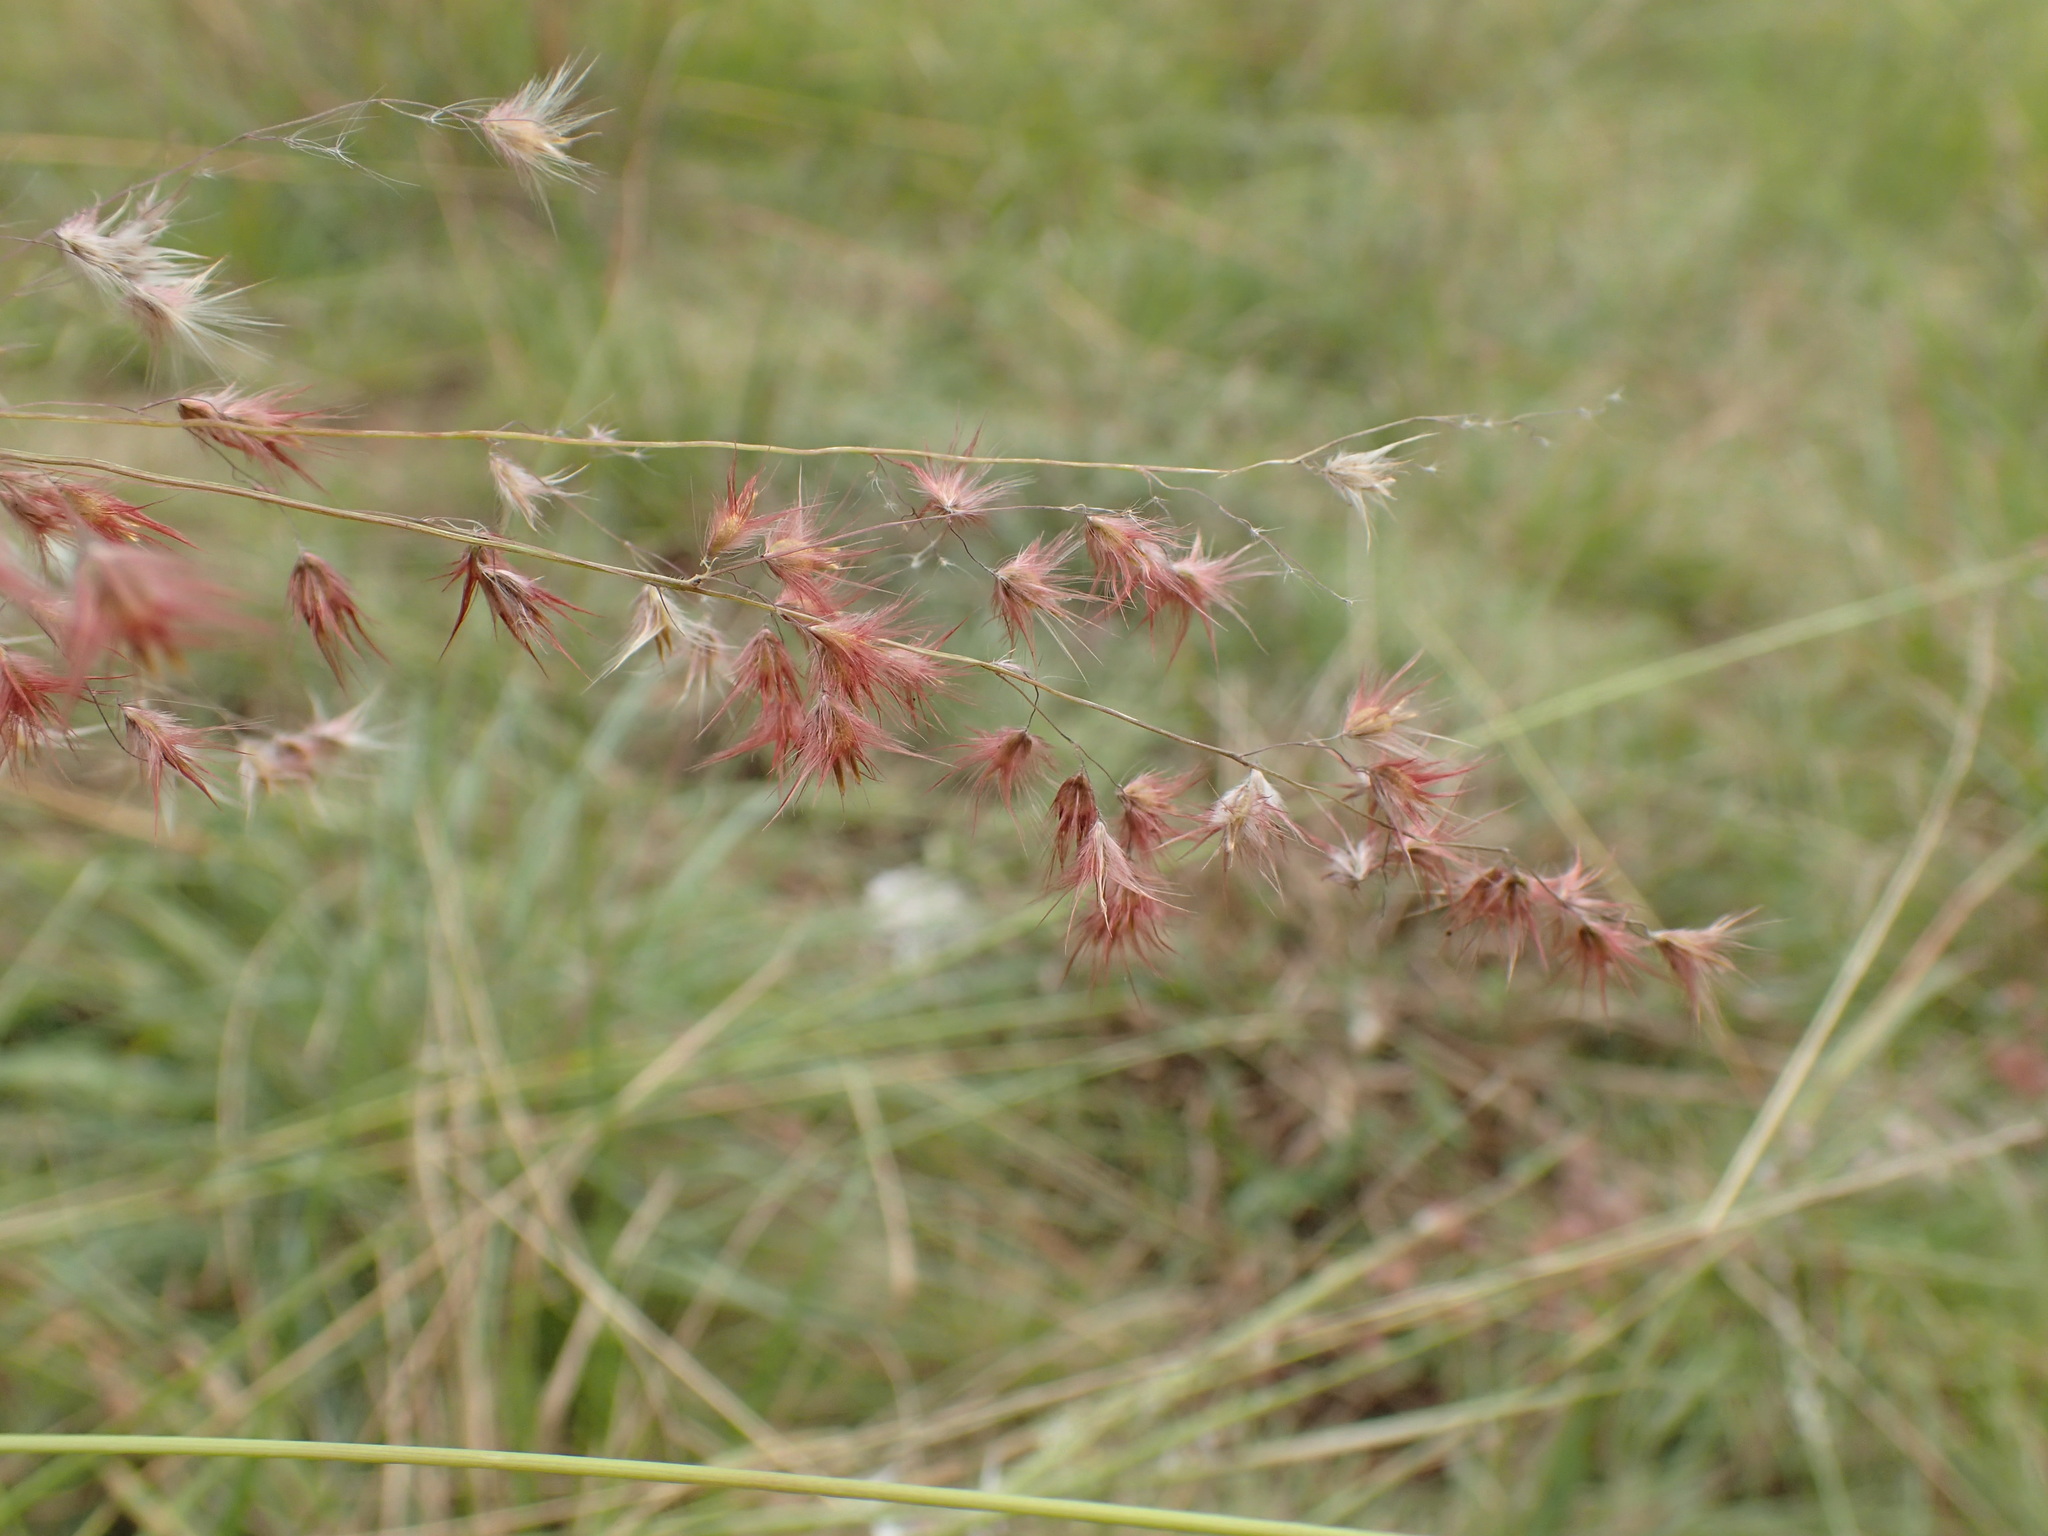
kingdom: Plantae
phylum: Tracheophyta
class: Liliopsida
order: Poales
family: Poaceae
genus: Melinis
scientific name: Melinis repens
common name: Rose natal grass
